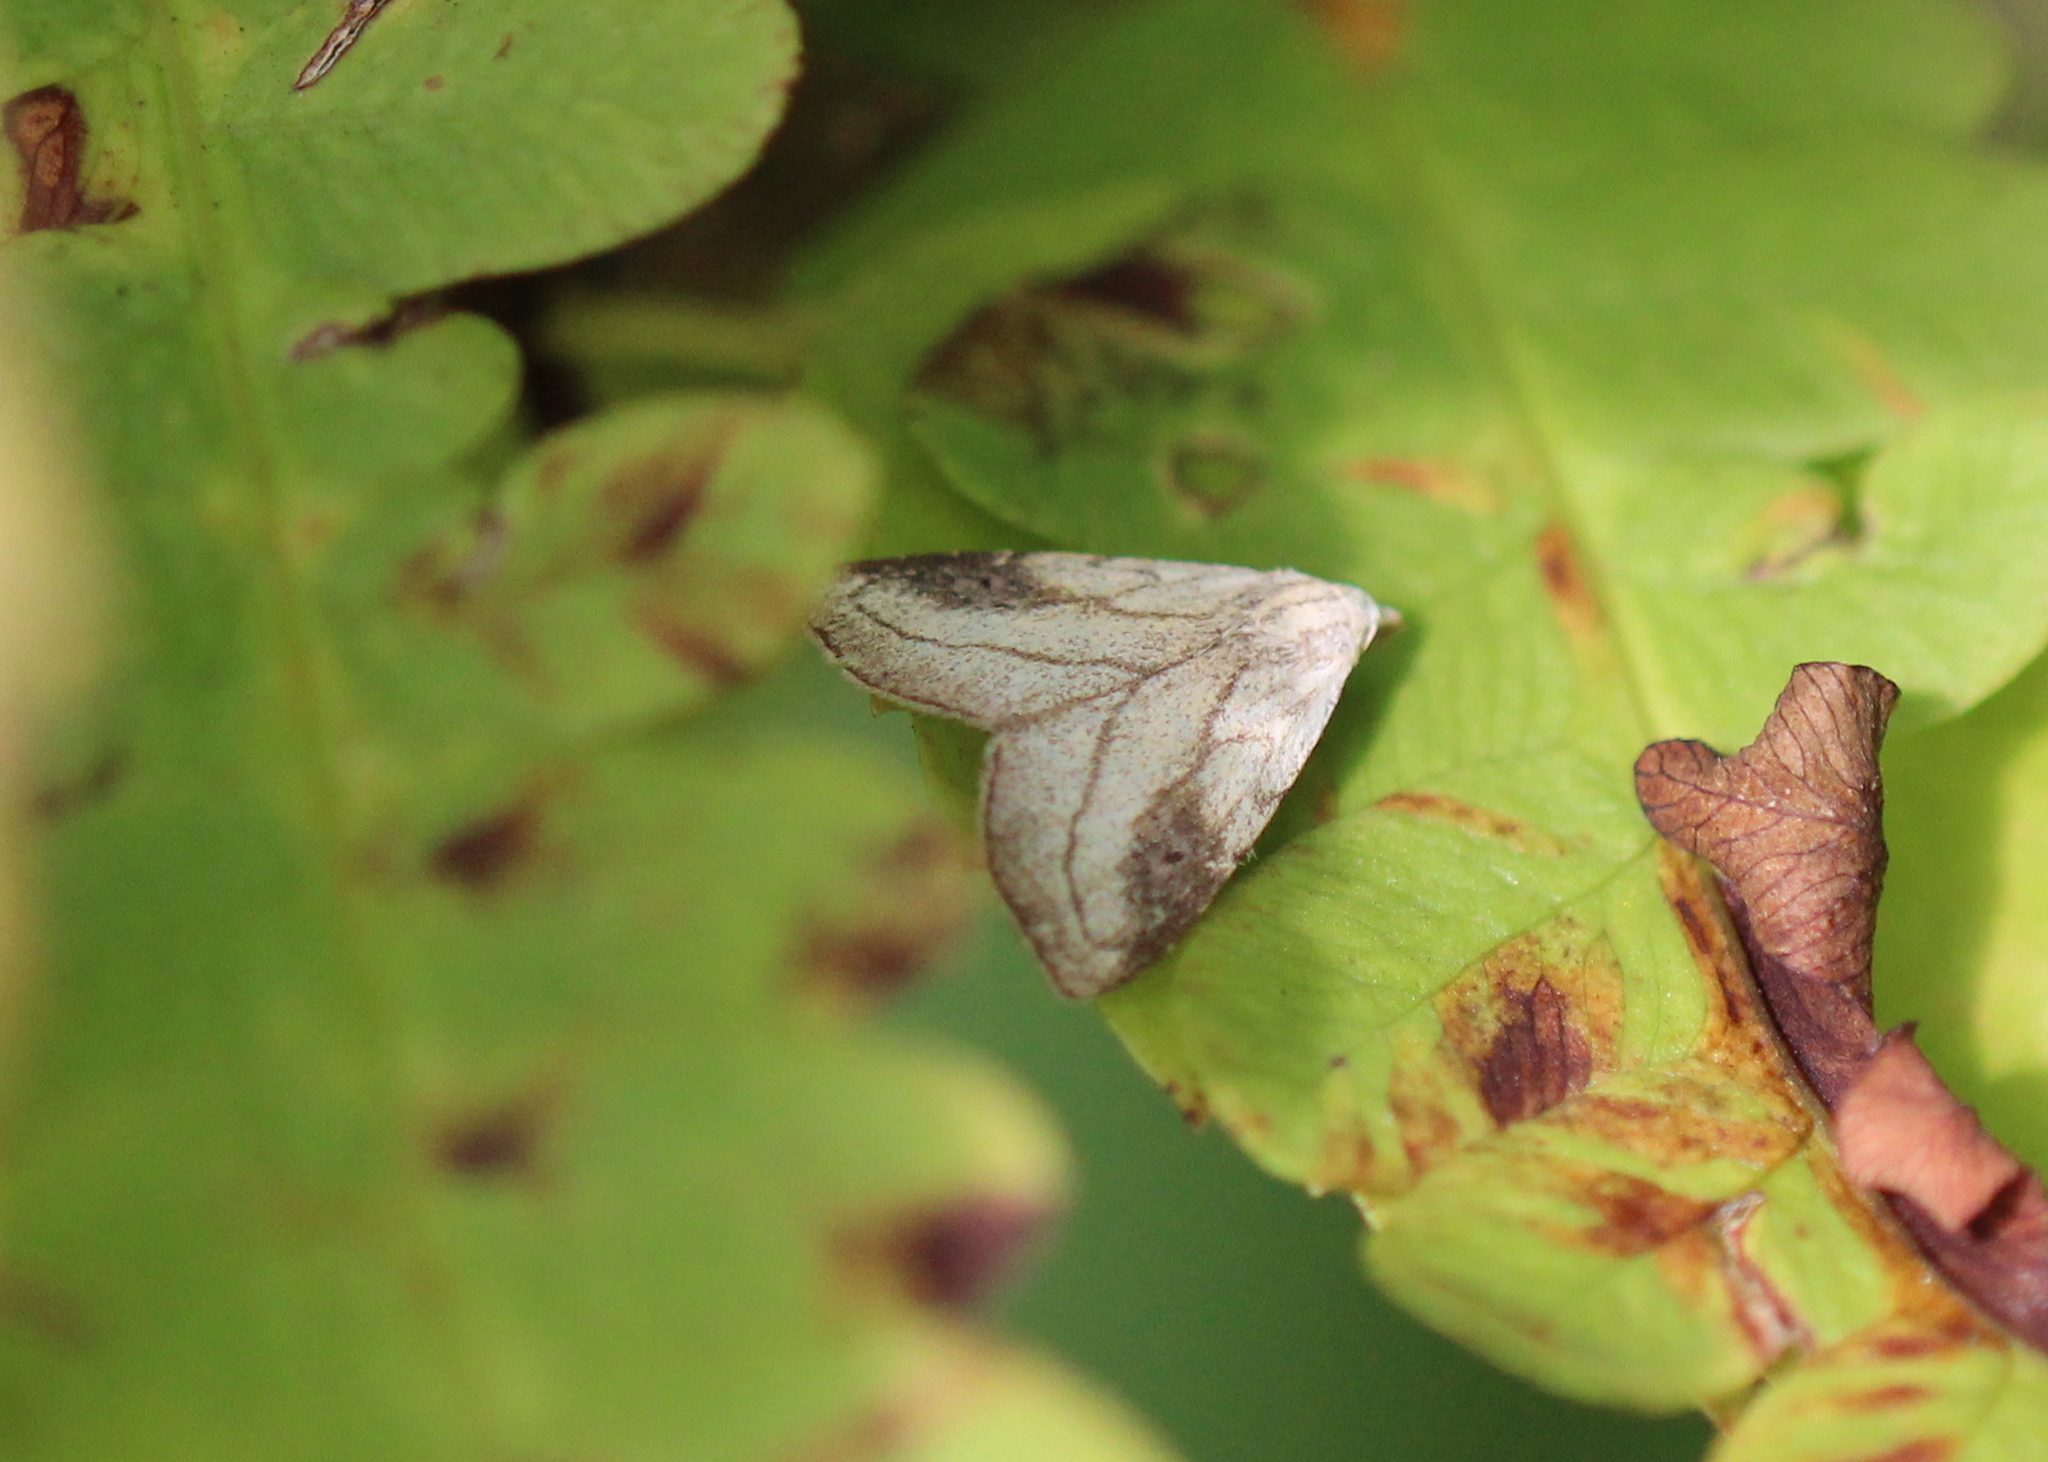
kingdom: Animalia
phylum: Arthropoda
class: Insecta
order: Lepidoptera
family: Erebidae
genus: Rivula
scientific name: Rivula propinqualis
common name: Spotted grass moth
